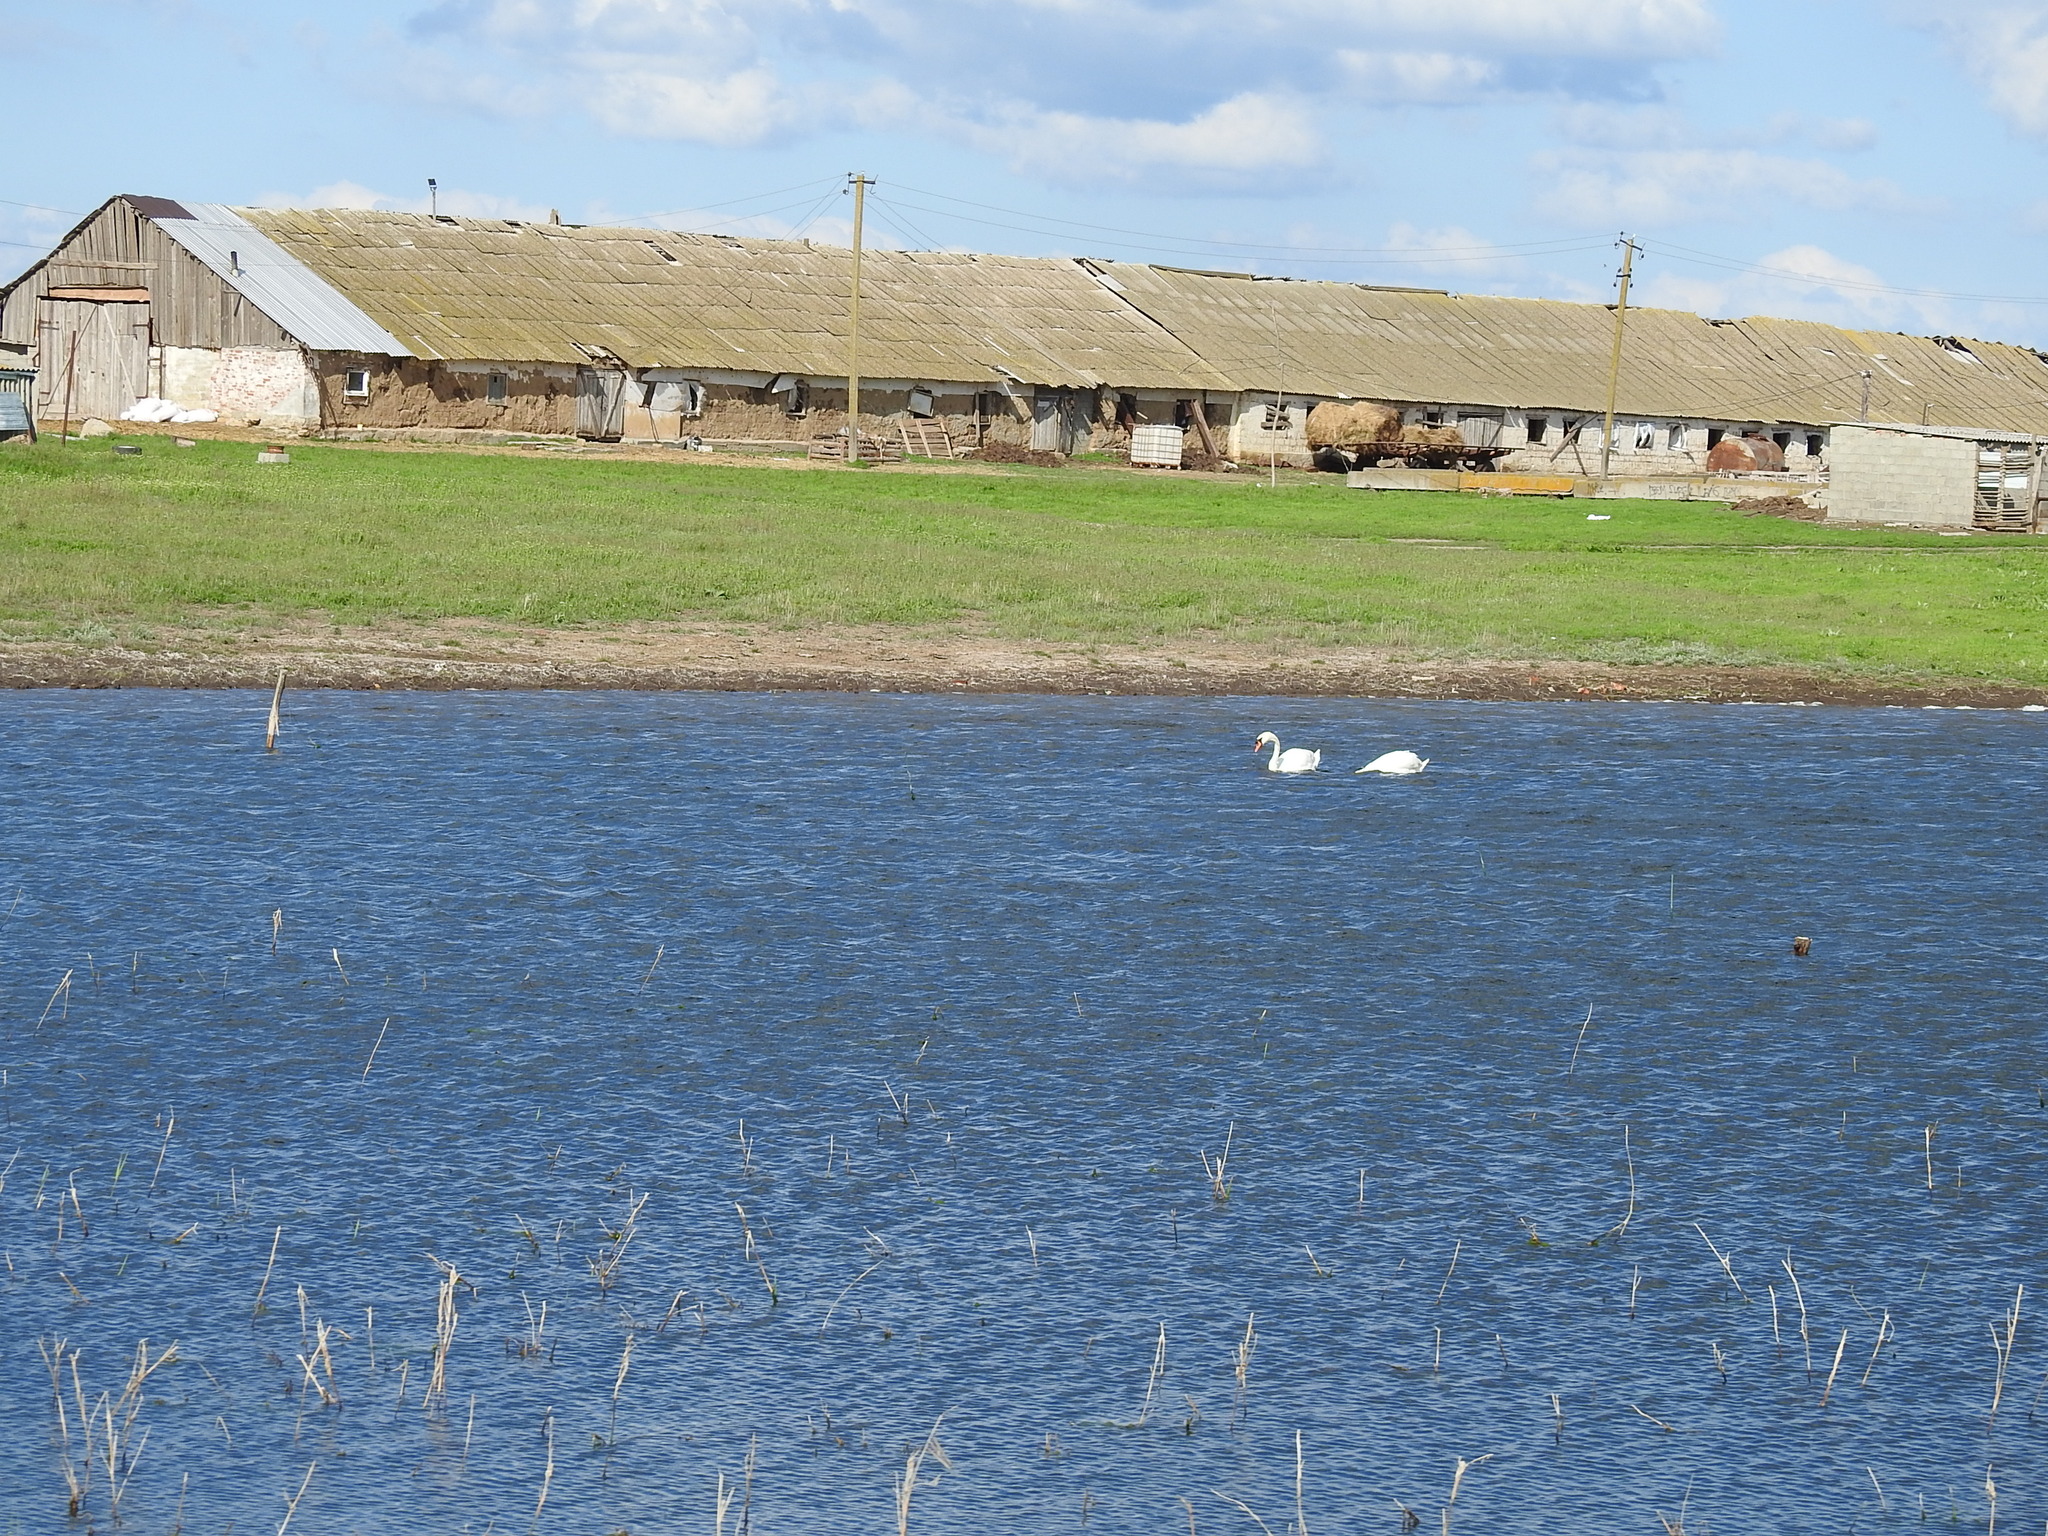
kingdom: Animalia
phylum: Chordata
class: Aves
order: Anseriformes
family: Anatidae
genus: Cygnus
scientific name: Cygnus olor
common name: Mute swan
